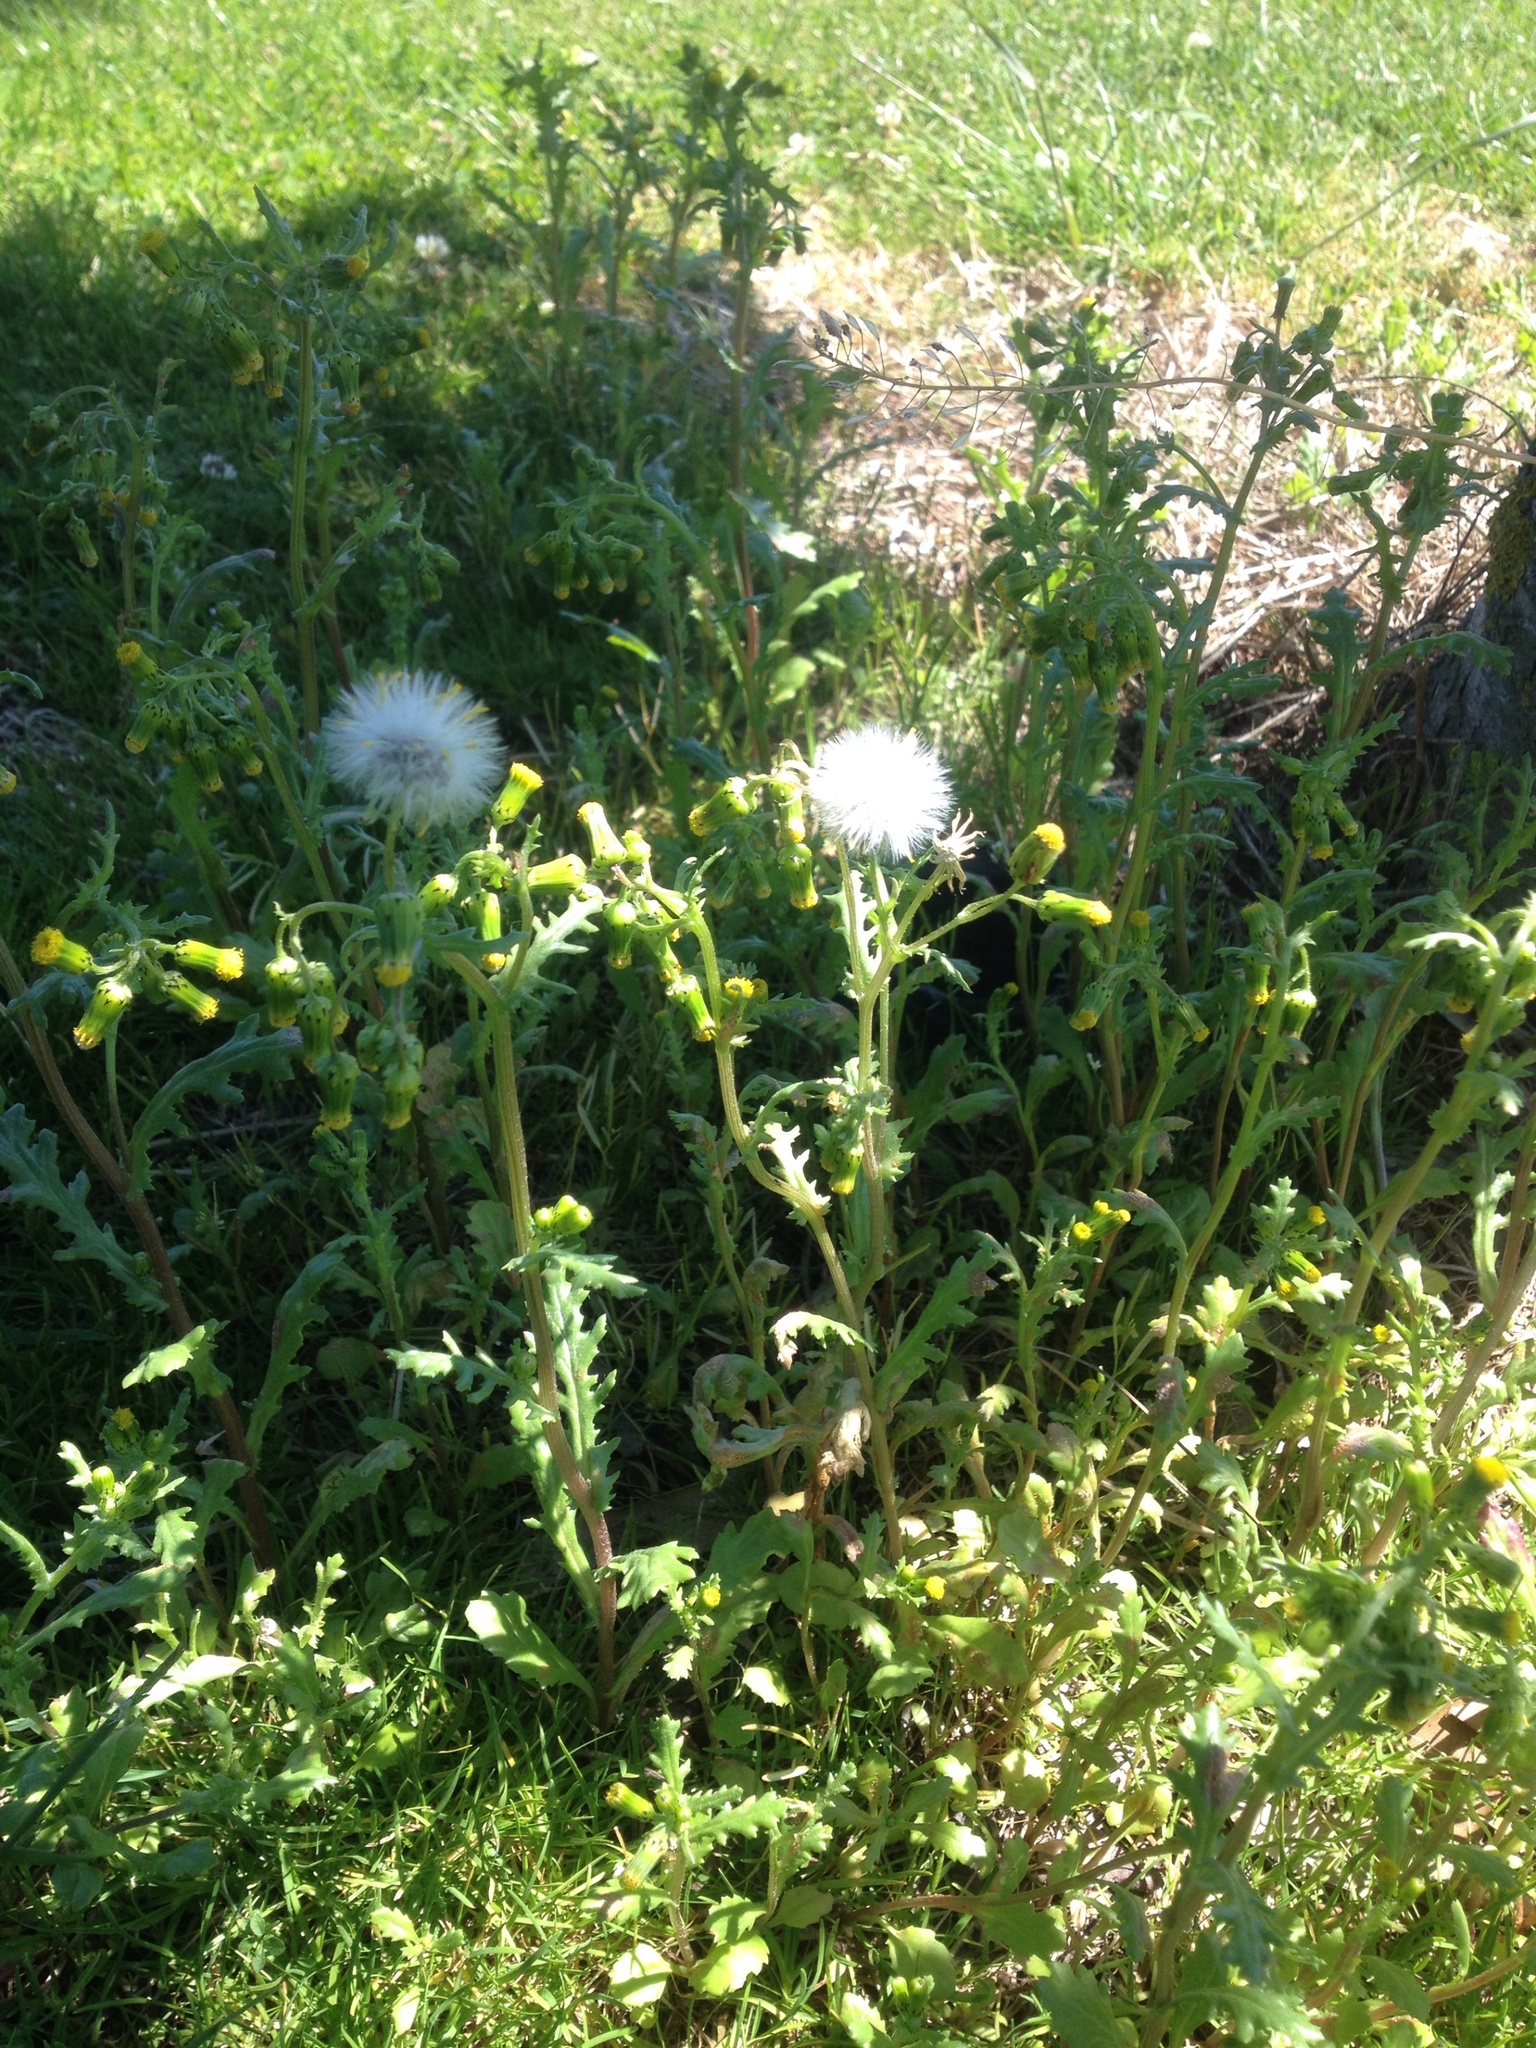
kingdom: Plantae
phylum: Tracheophyta
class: Magnoliopsida
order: Asterales
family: Asteraceae
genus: Senecio
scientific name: Senecio vulgaris
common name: Old-man-in-the-spring
